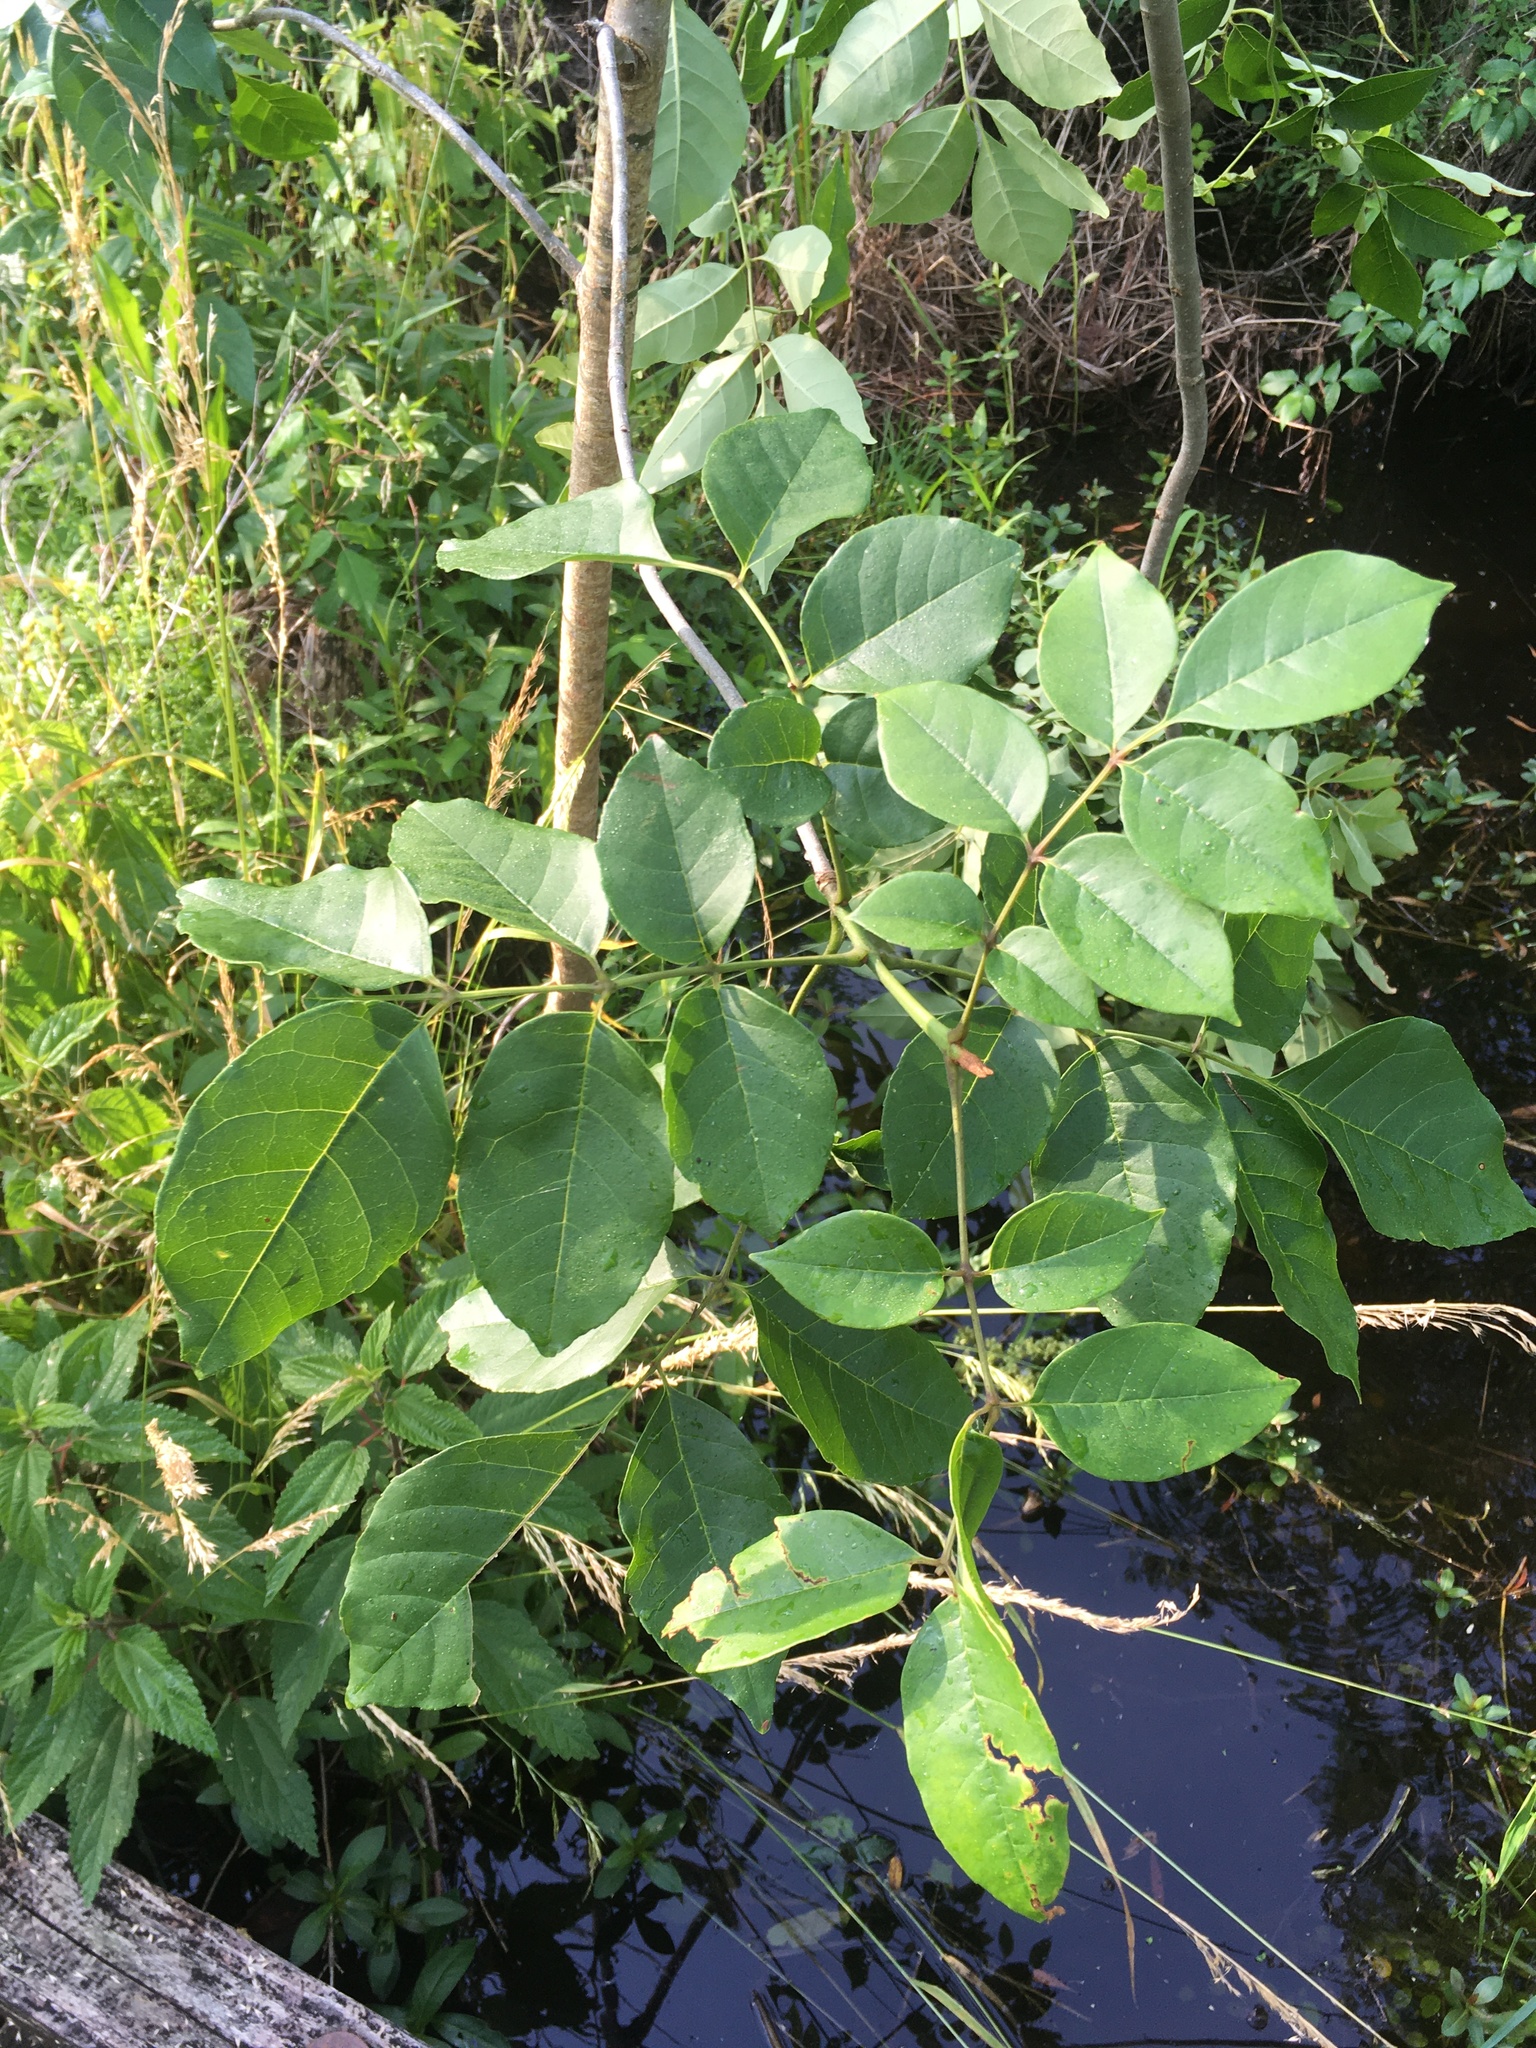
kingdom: Plantae
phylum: Tracheophyta
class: Magnoliopsida
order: Lamiales
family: Oleaceae
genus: Fraxinus
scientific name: Fraxinus pennsylvanica
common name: Green ash
